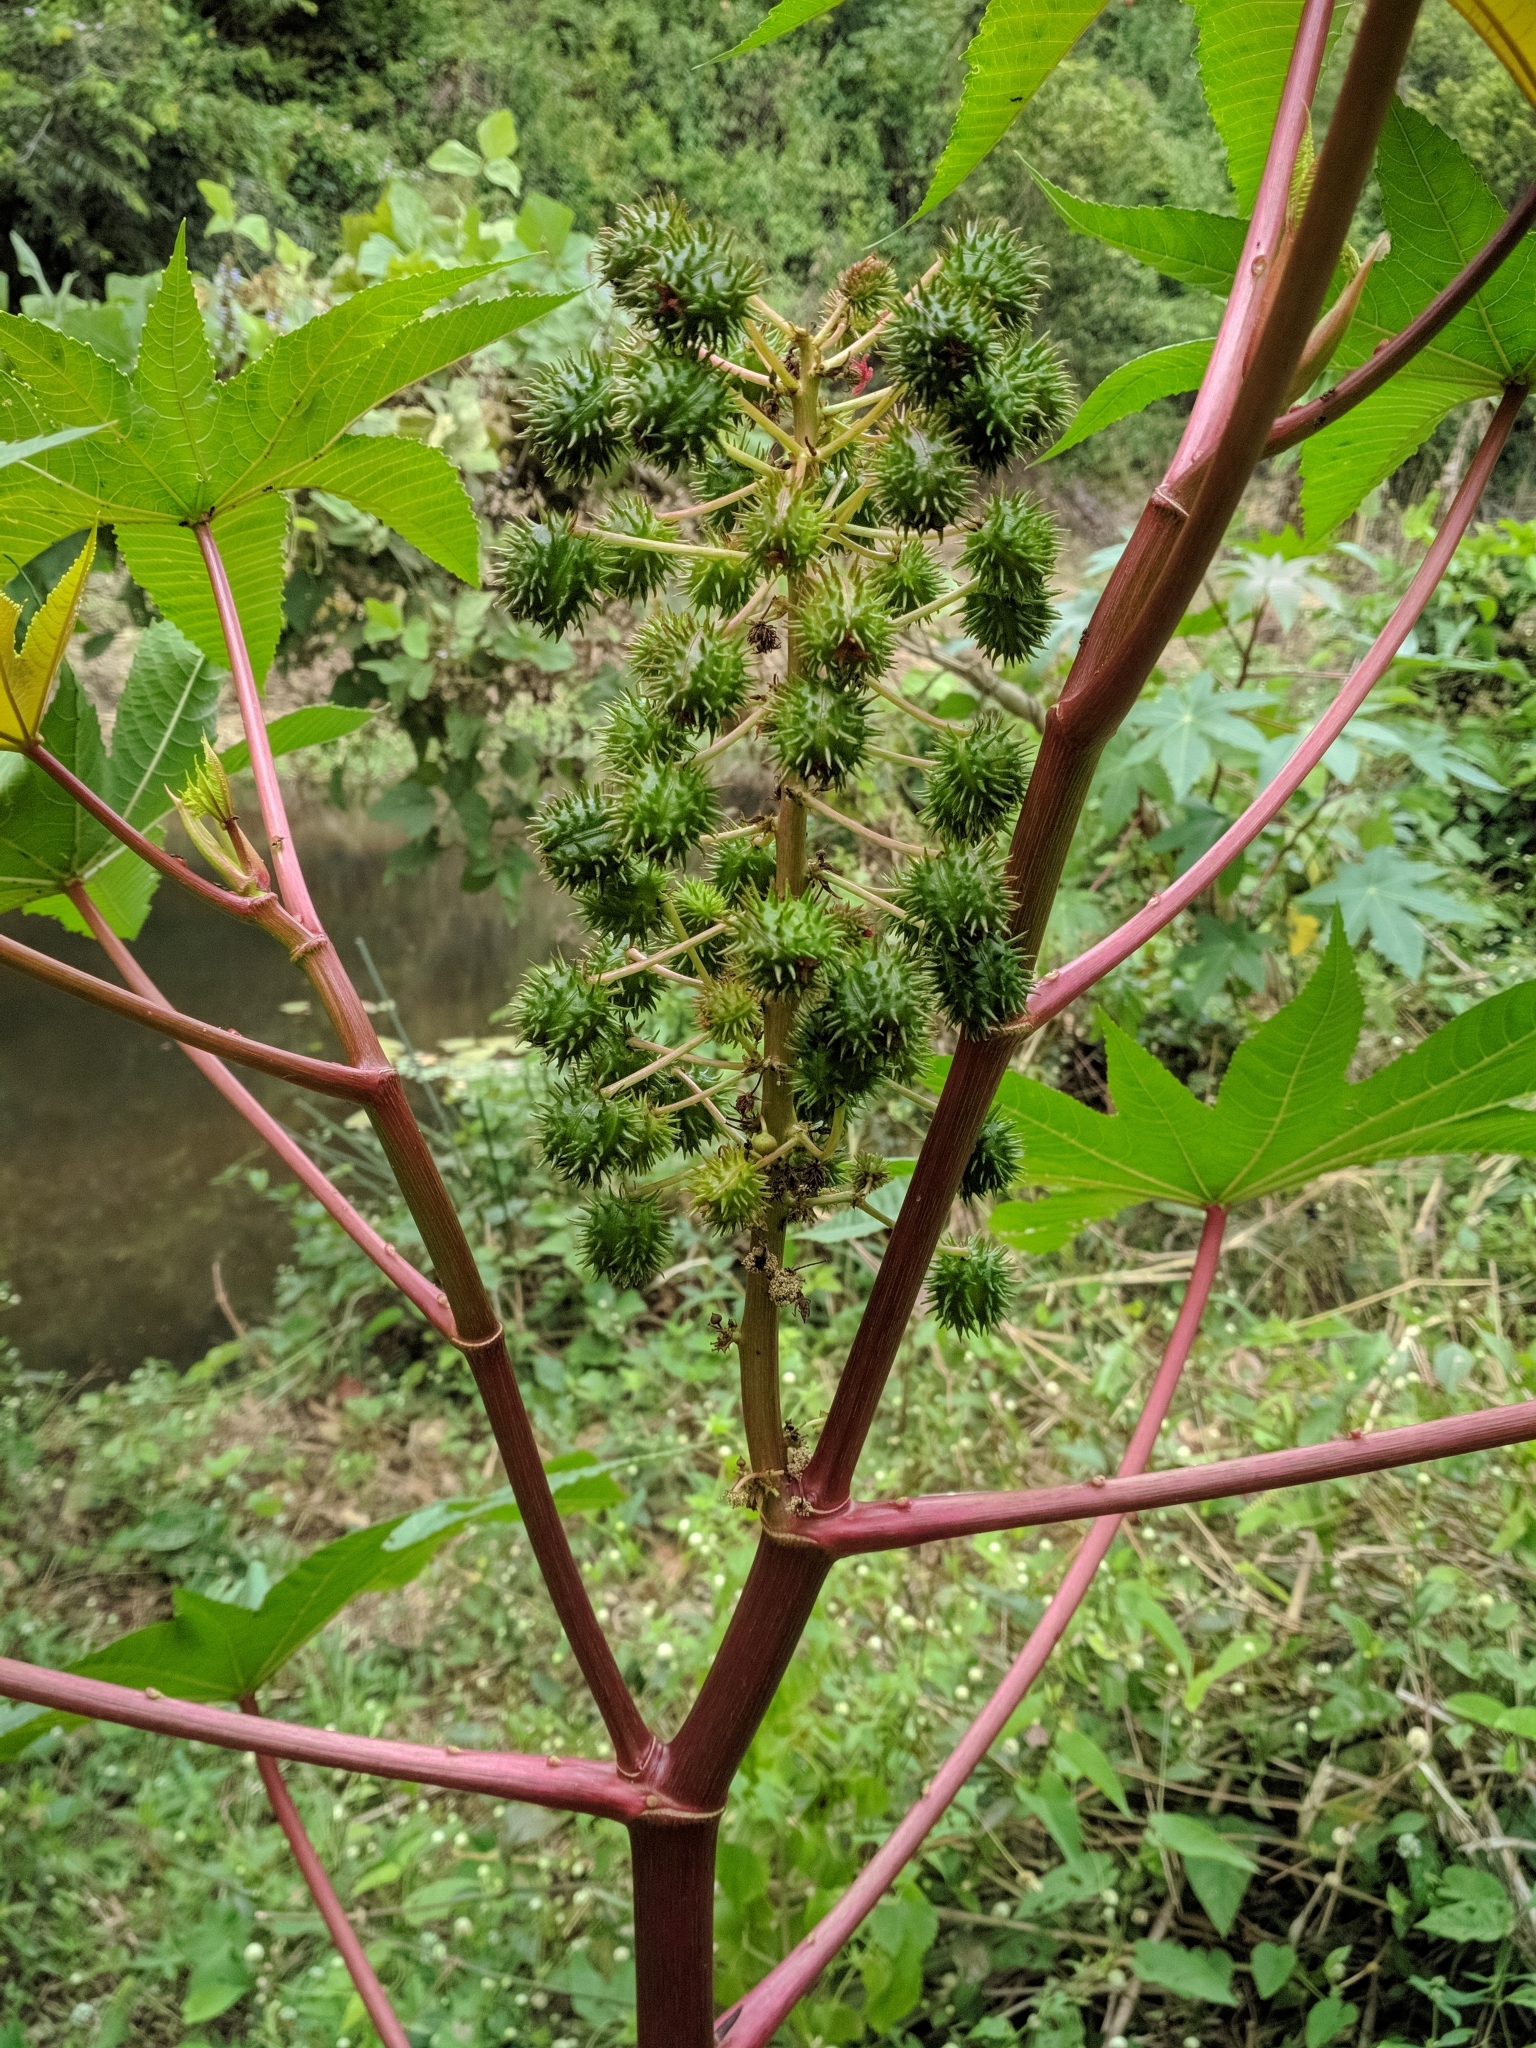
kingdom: Plantae
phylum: Tracheophyta
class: Magnoliopsida
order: Malpighiales
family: Euphorbiaceae
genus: Ricinus
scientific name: Ricinus communis
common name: Castor-oil-plant
